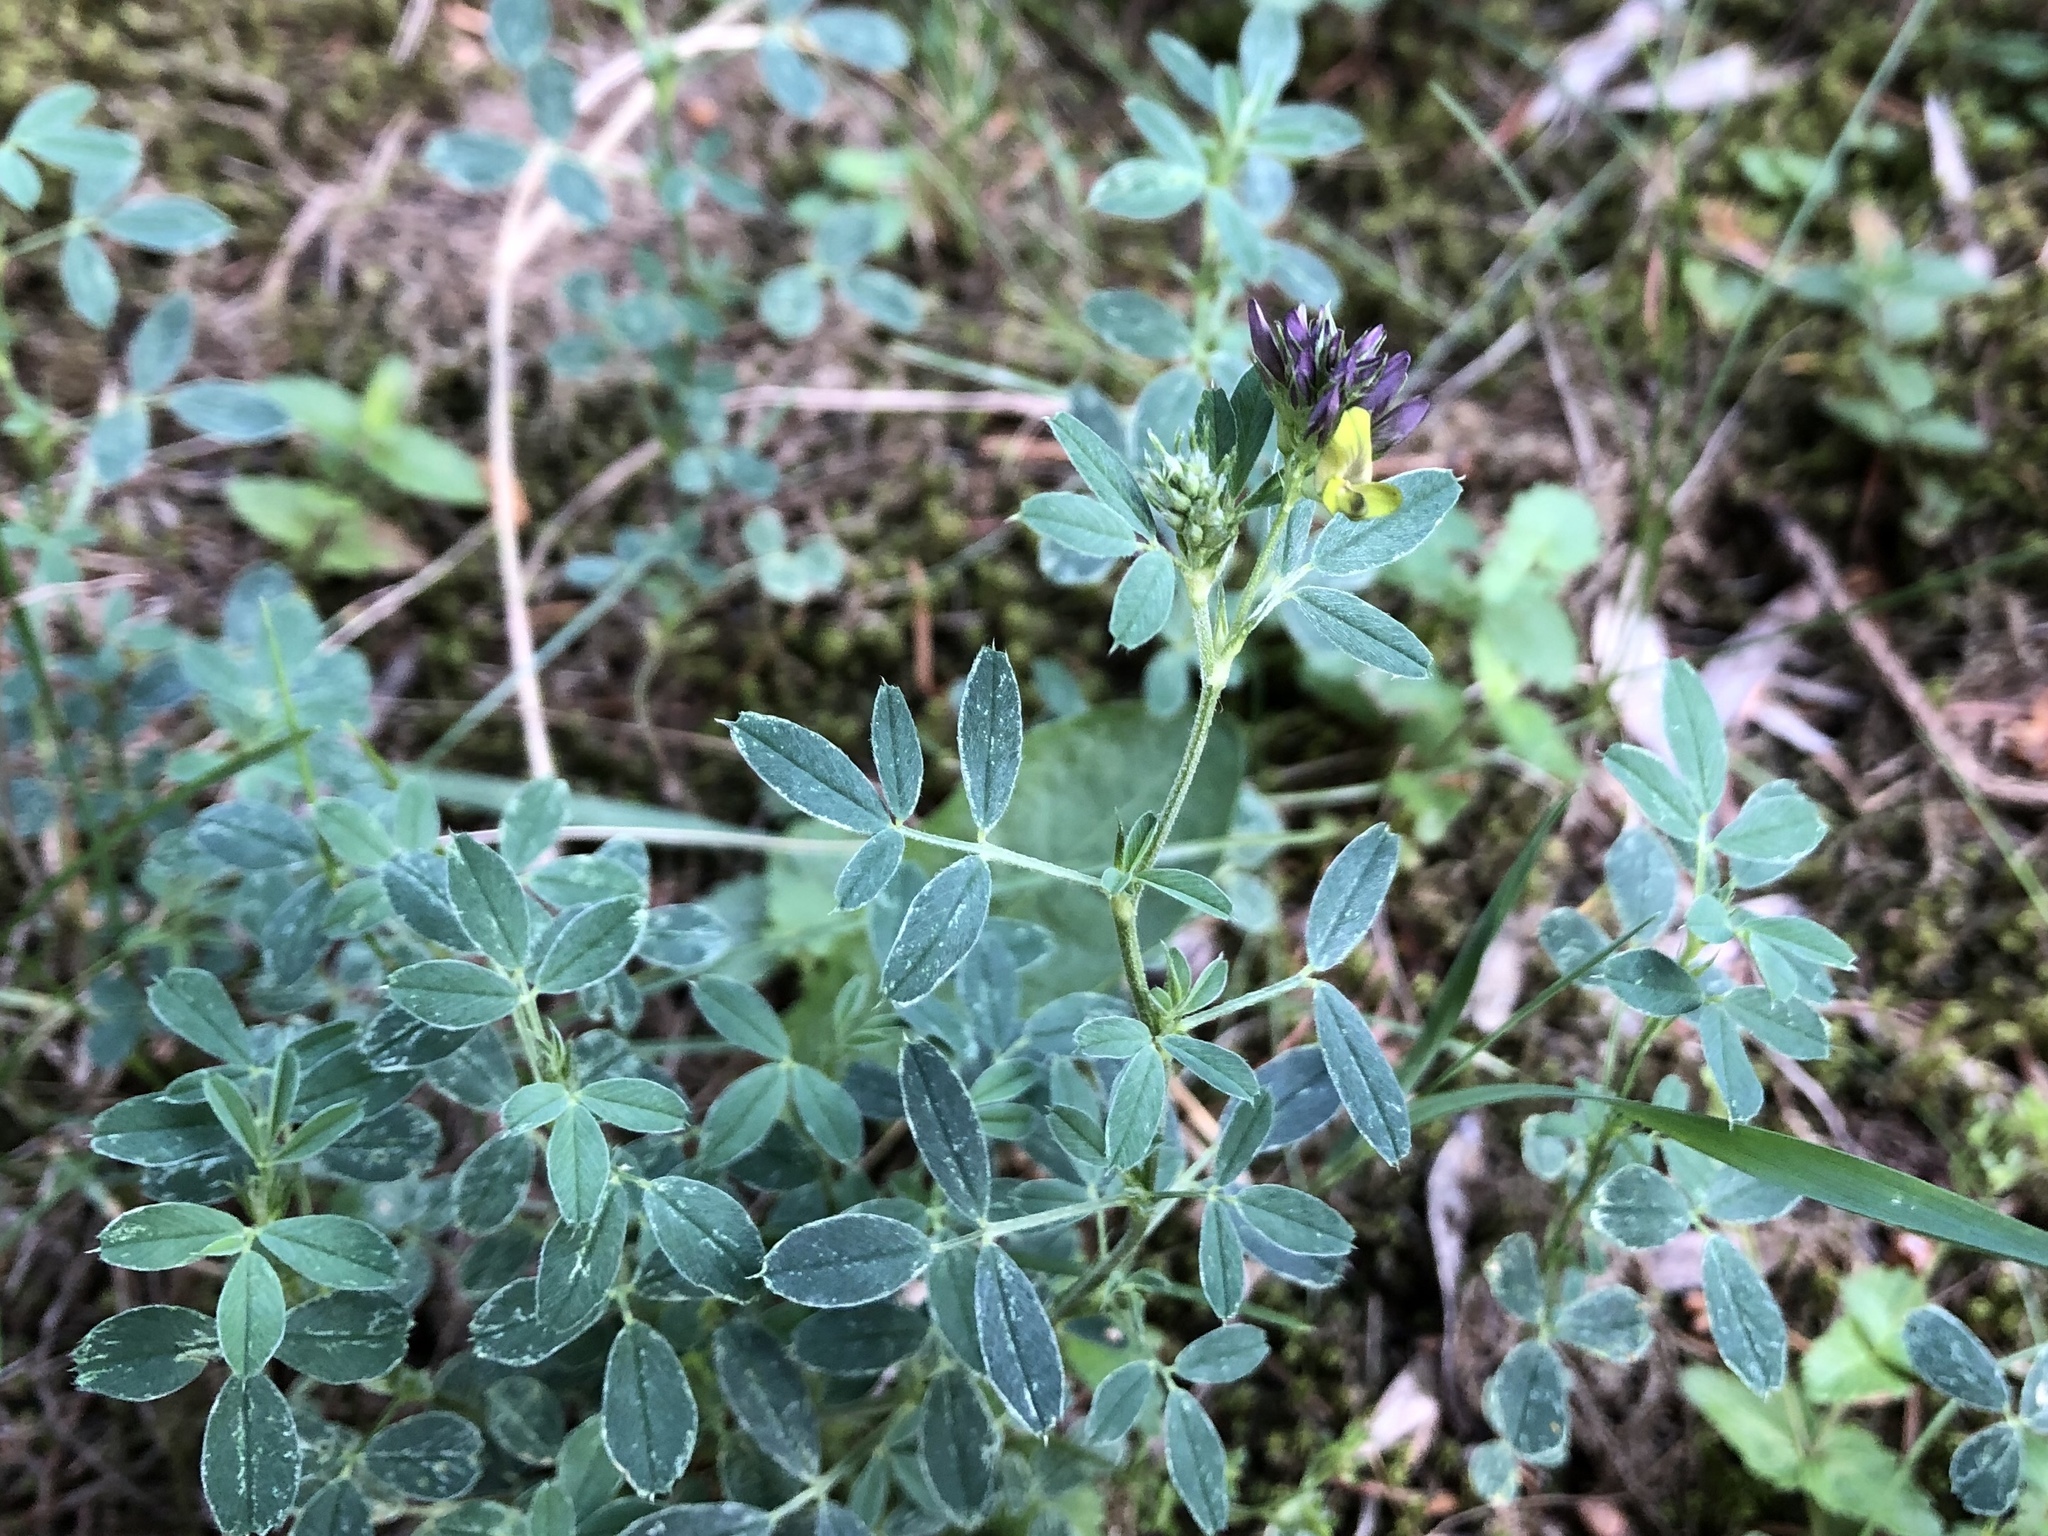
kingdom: Plantae
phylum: Tracheophyta
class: Magnoliopsida
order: Fabales
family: Fabaceae
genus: Medicago
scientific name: Medicago varia
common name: Sand lucerne
